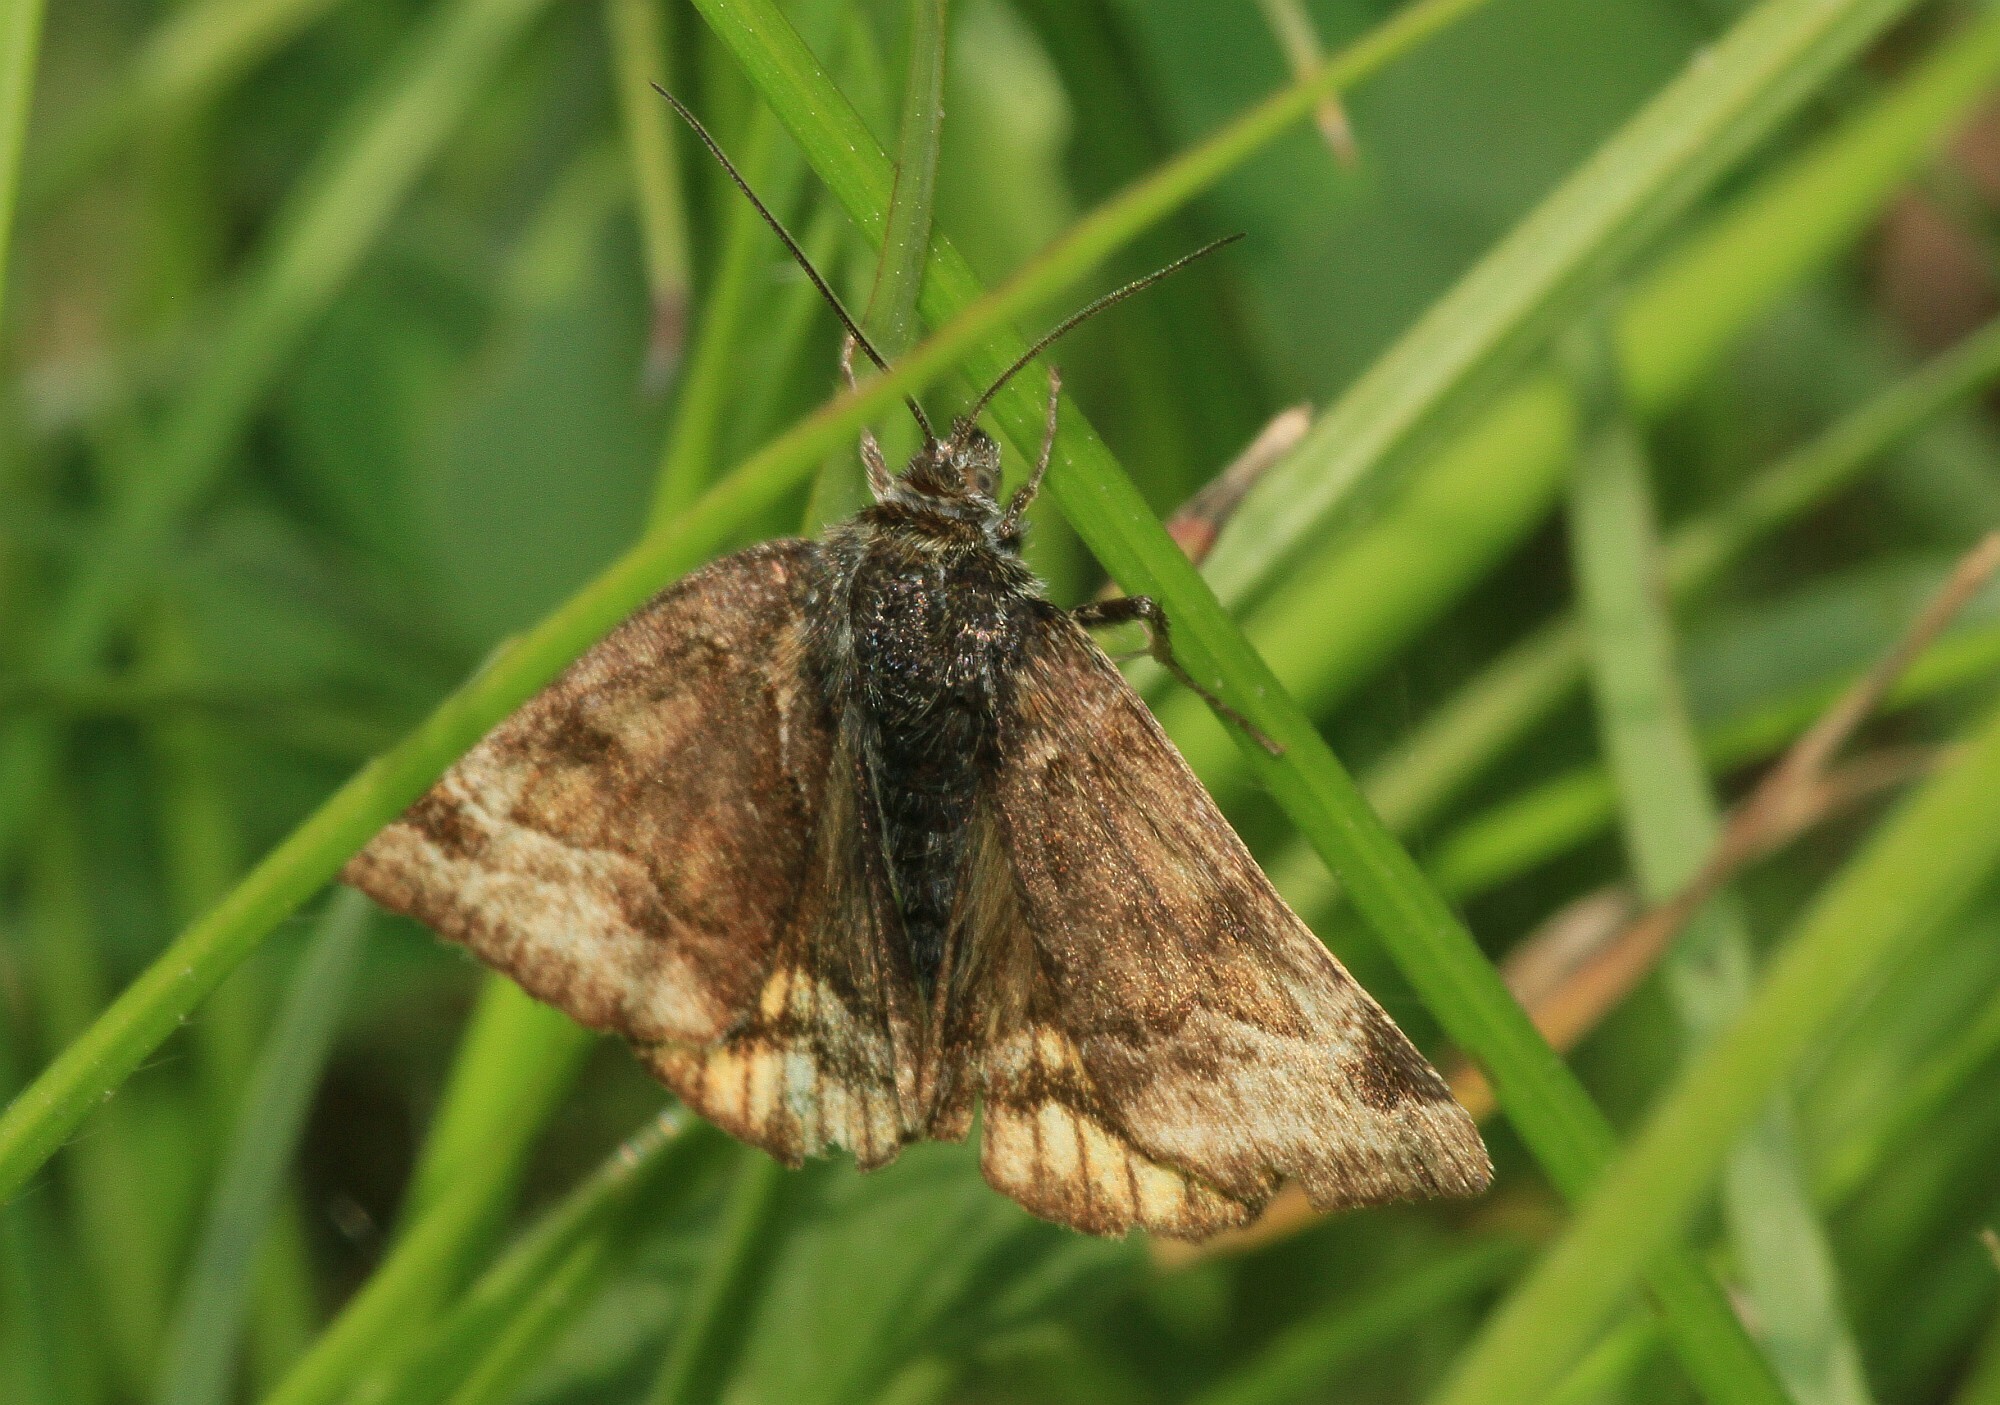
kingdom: Animalia
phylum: Arthropoda
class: Insecta
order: Lepidoptera
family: Erebidae
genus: Euclidia
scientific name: Euclidia glyphica
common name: Burnet companion
